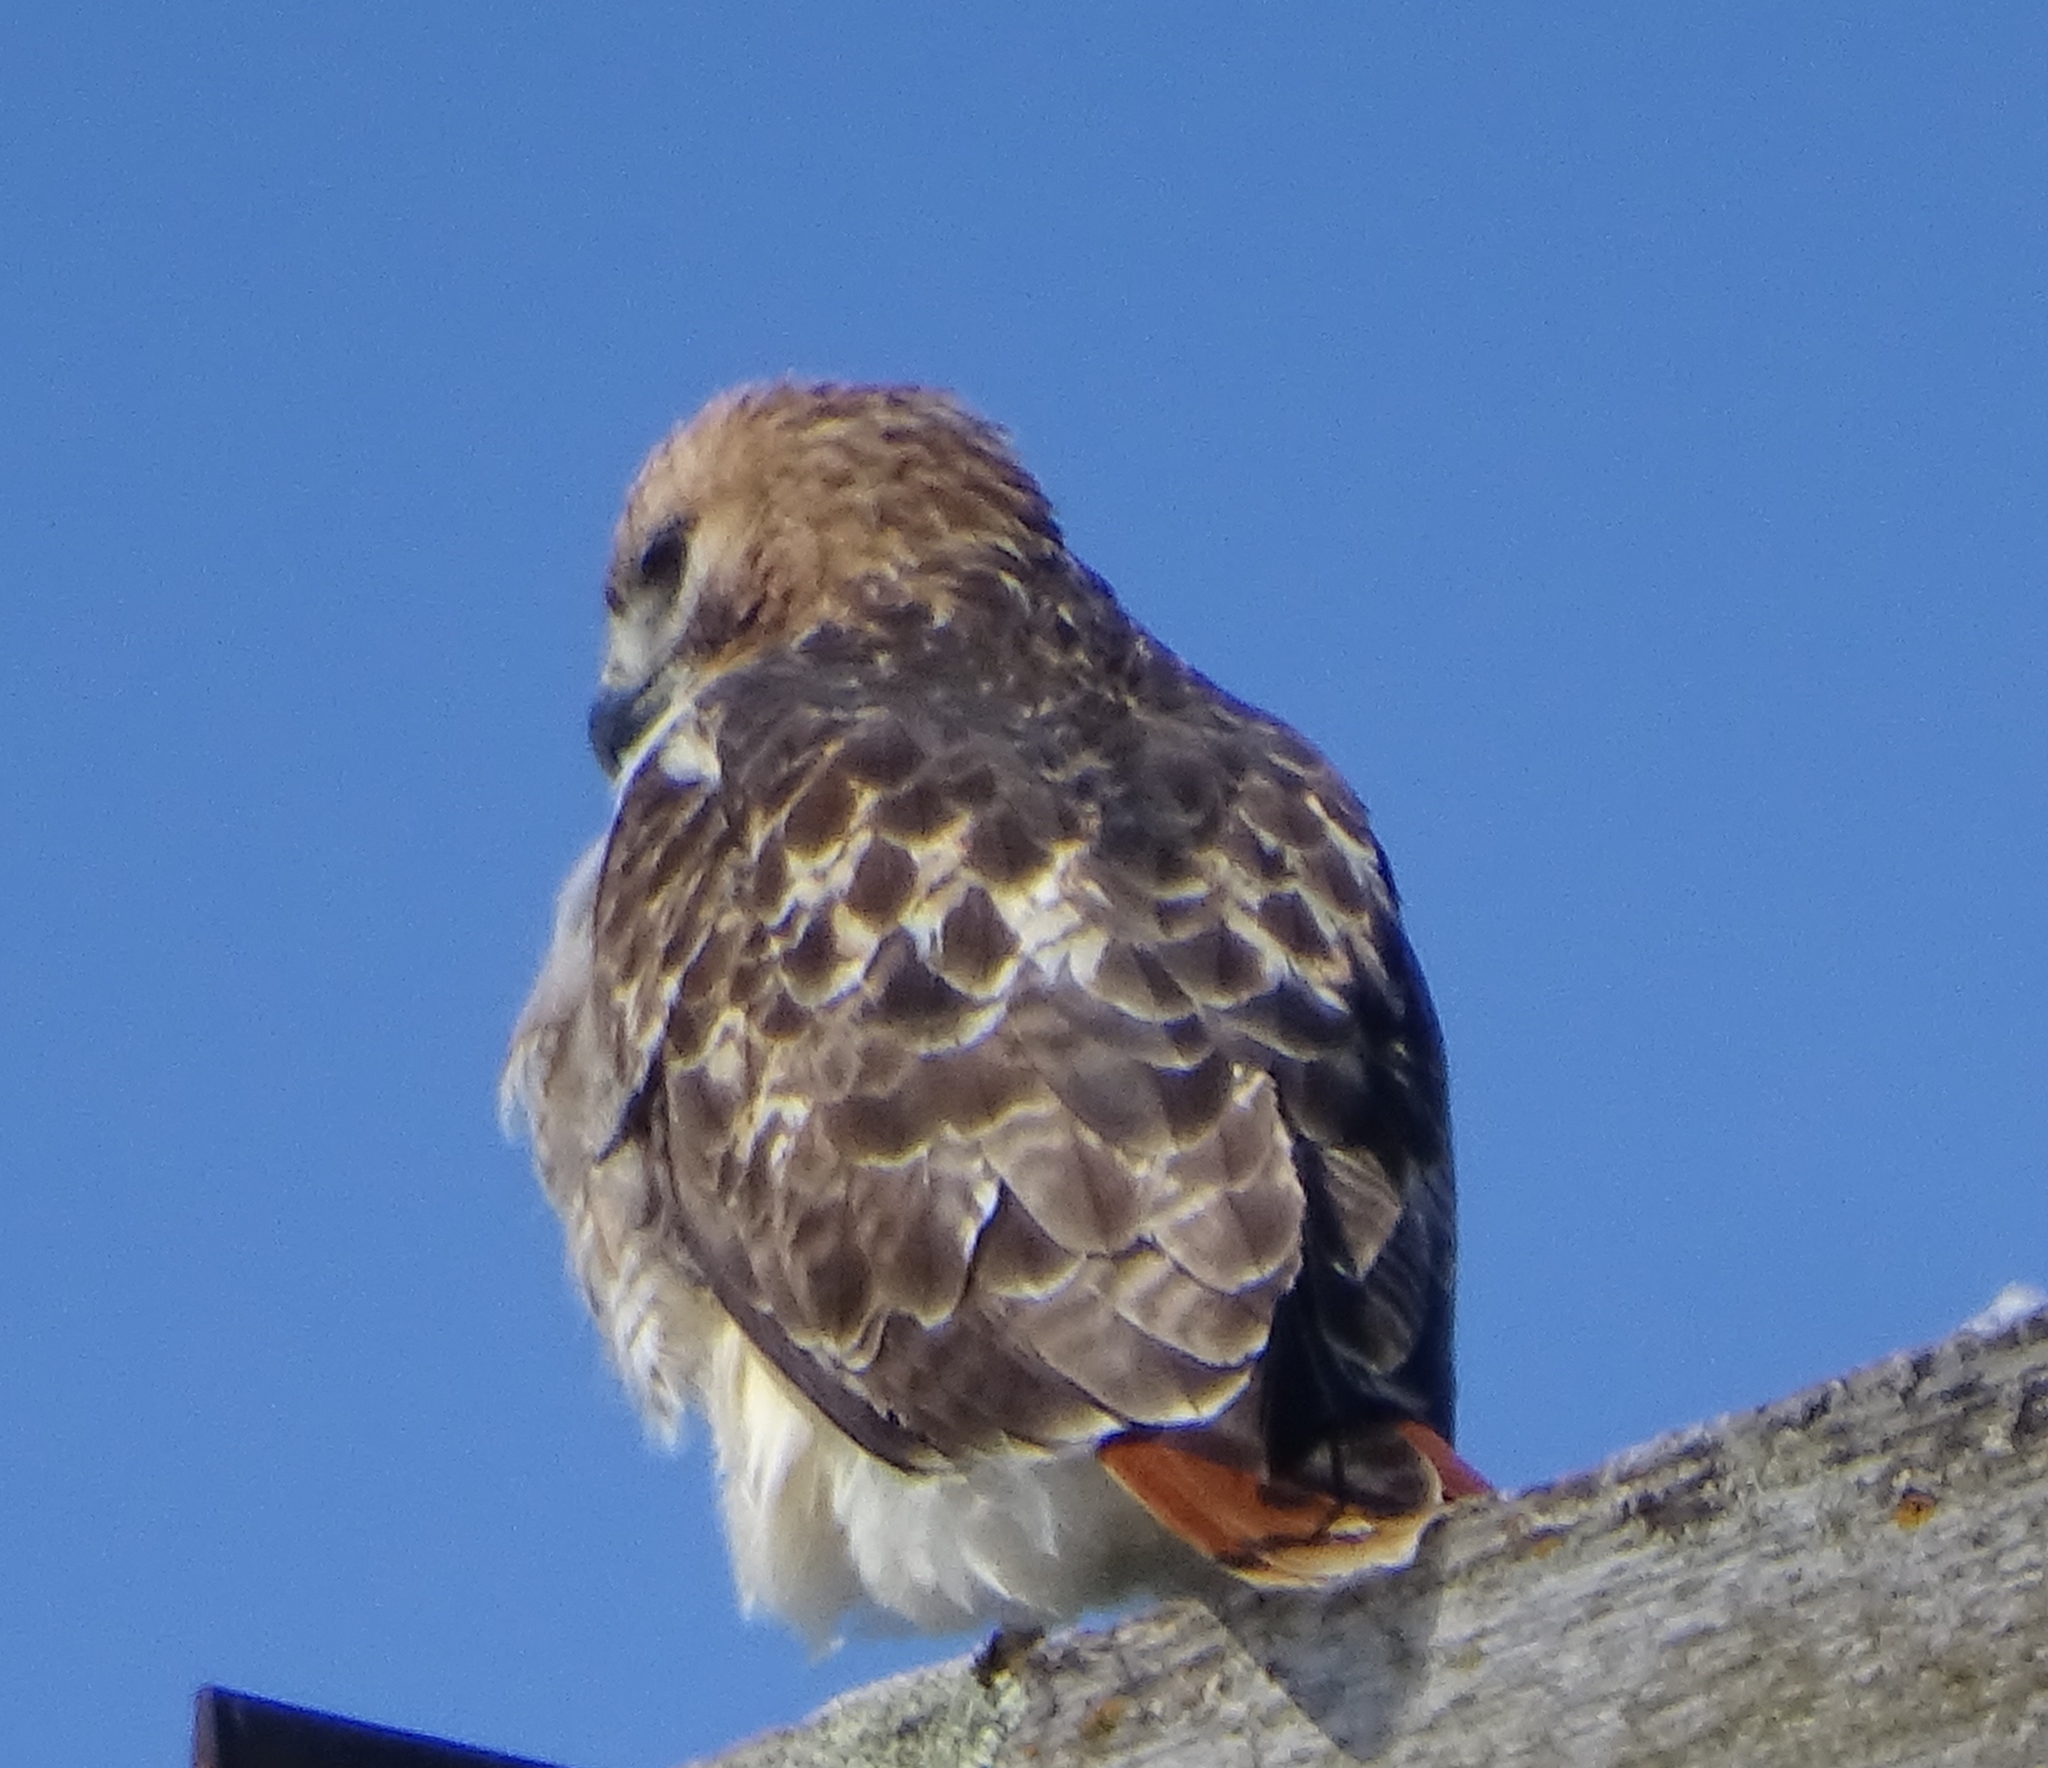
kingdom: Animalia
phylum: Chordata
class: Aves
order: Accipitriformes
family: Accipitridae
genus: Buteo
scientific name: Buteo jamaicensis
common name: Red-tailed hawk
